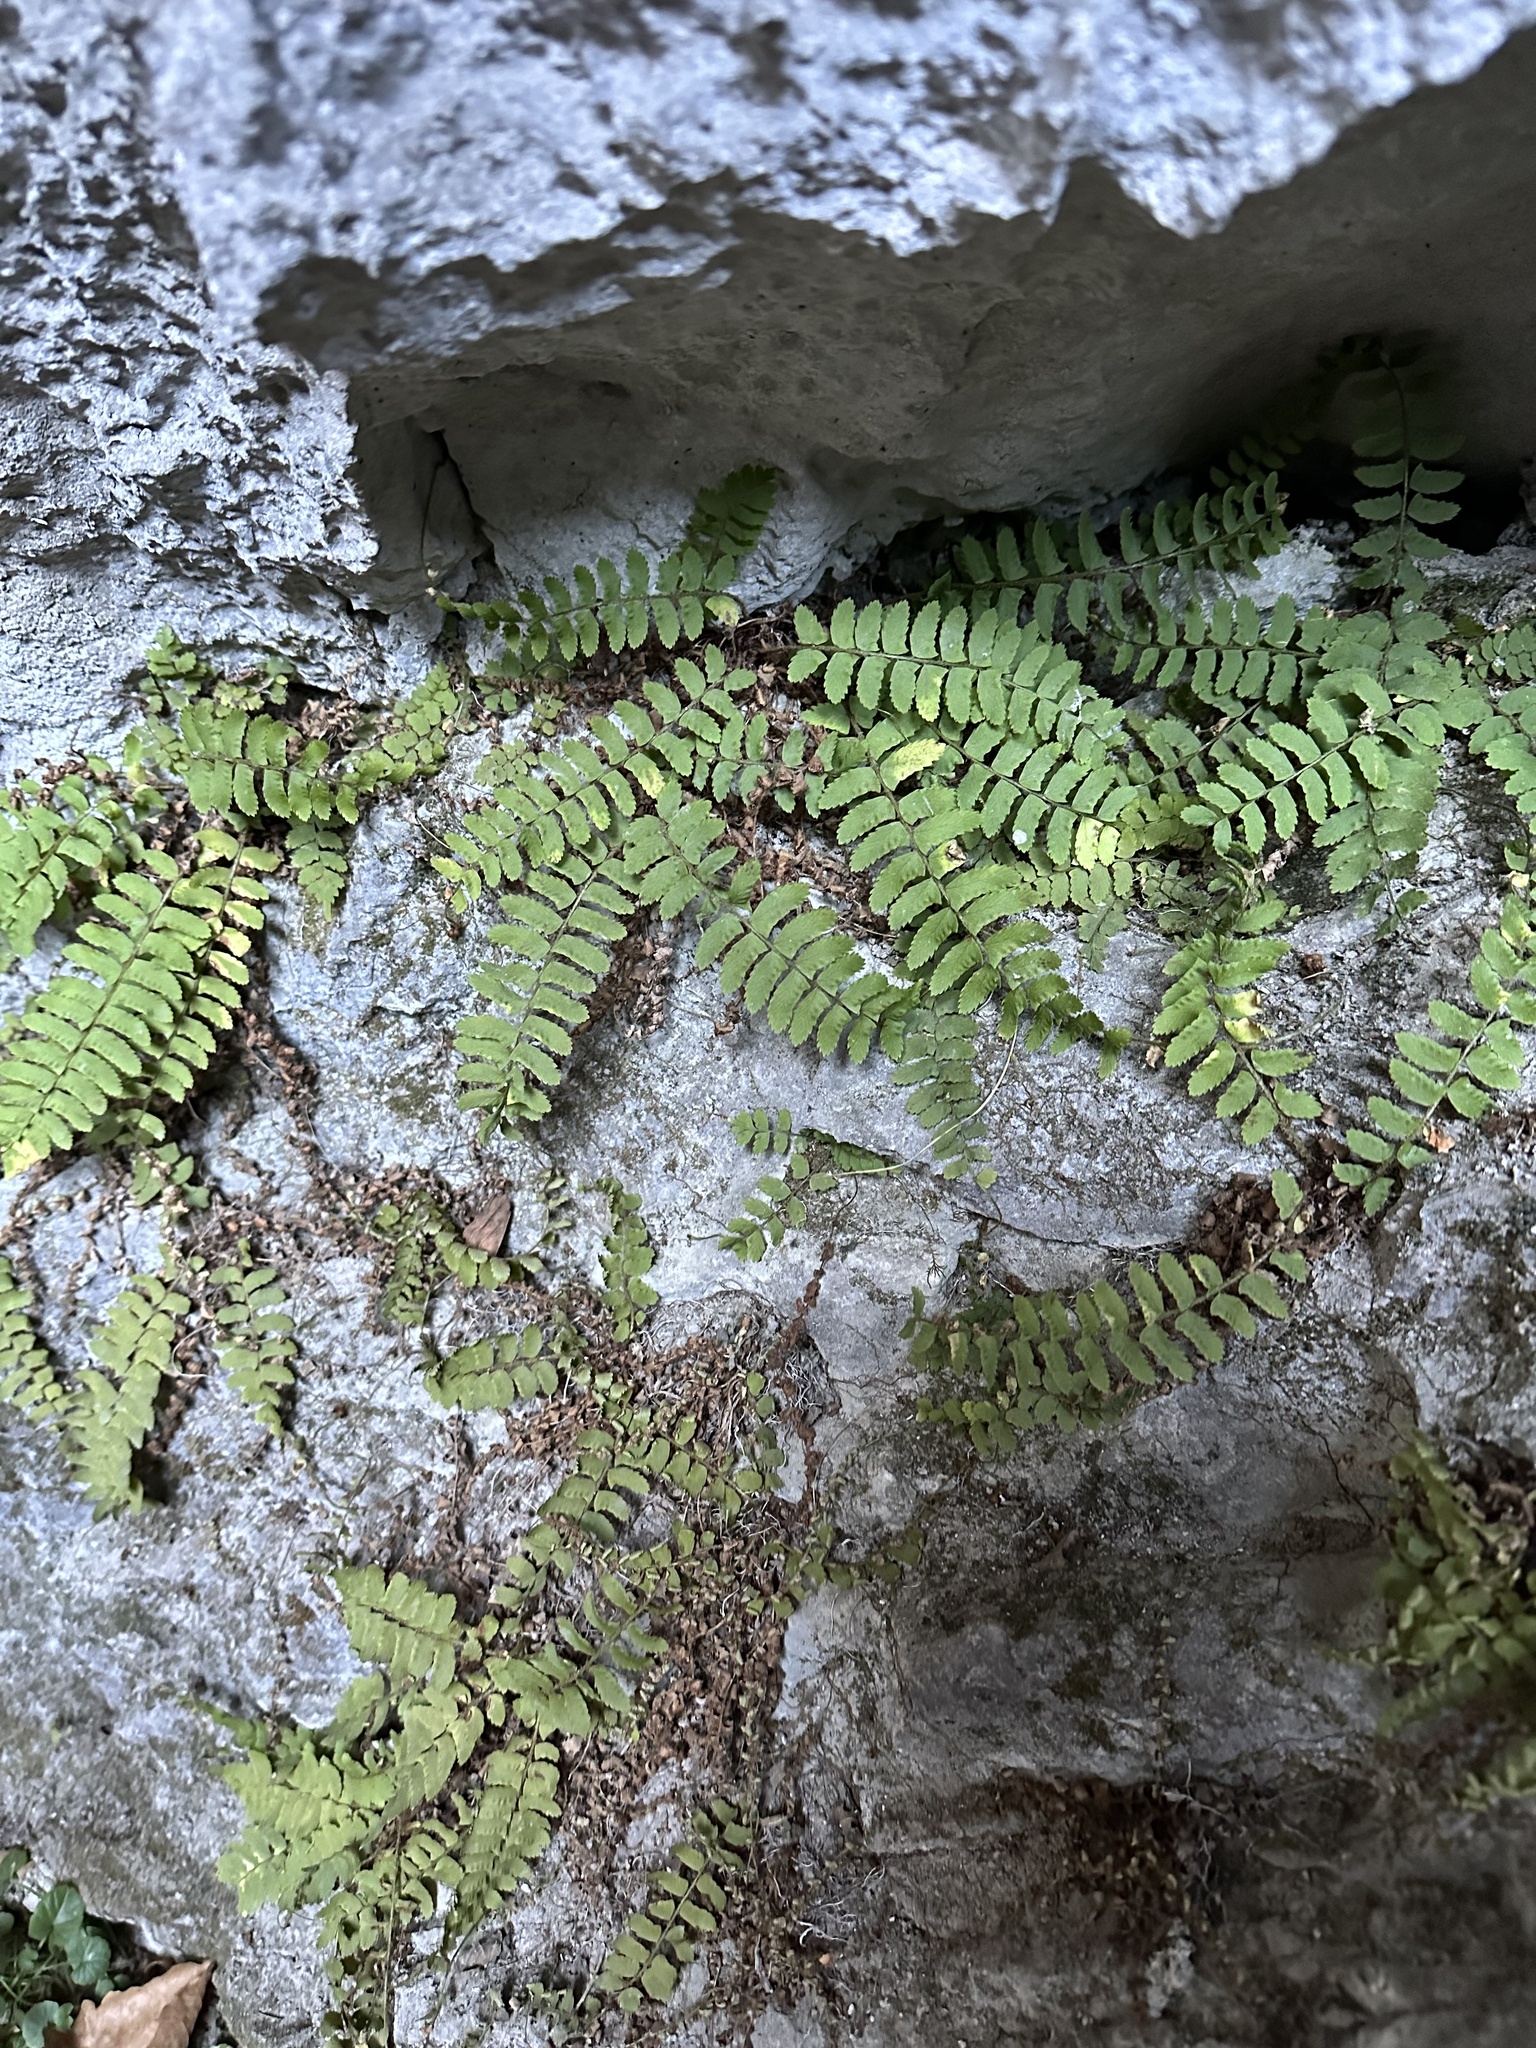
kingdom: Plantae
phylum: Tracheophyta
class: Polypodiopsida
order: Polypodiales
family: Dryopteridaceae
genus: Polystichum
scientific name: Polystichum craspedosorum
